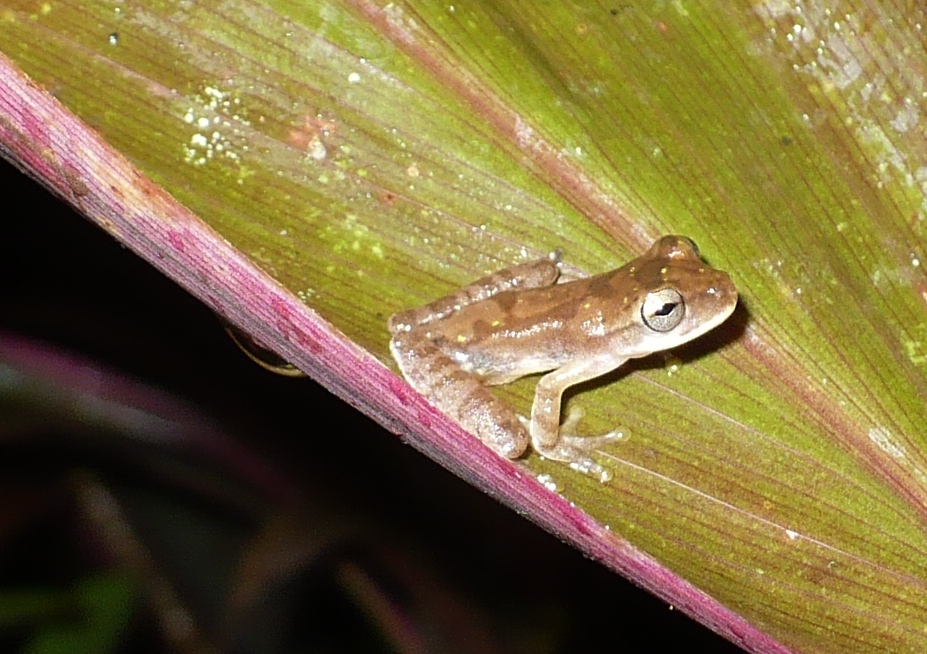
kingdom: Animalia
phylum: Chordata
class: Amphibia
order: Anura
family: Hylidae
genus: Smilisca
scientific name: Smilisca sordida
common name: Veragua cross-banded treefrog
